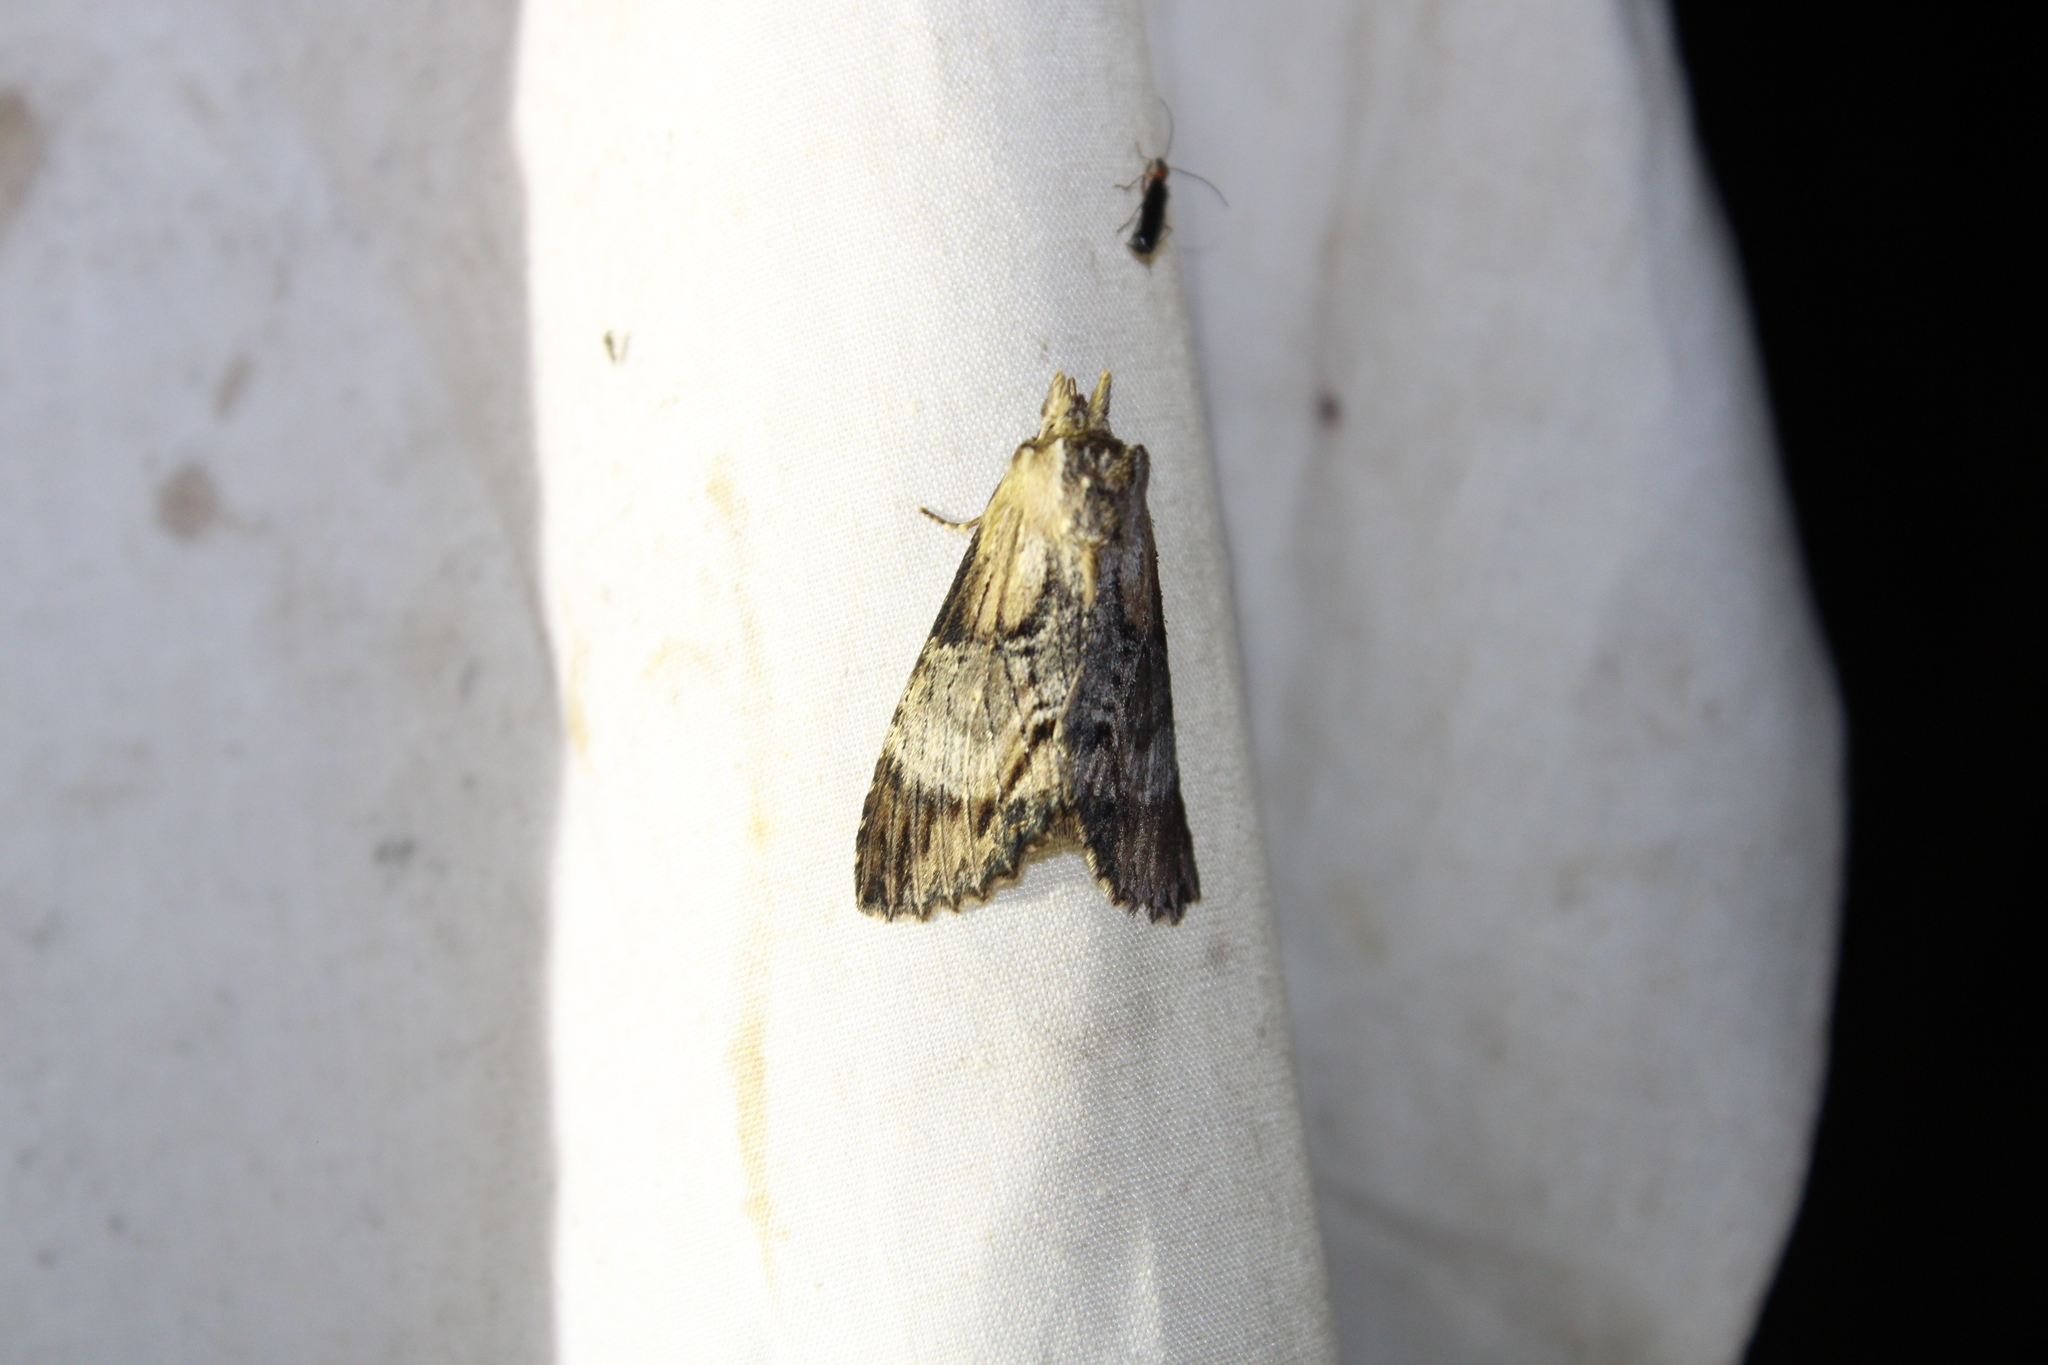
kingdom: Animalia
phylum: Arthropoda
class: Insecta
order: Lepidoptera
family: Notodontidae
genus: Dasylophia
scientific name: Dasylophia thyatiroides
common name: Gray-patched prominent
